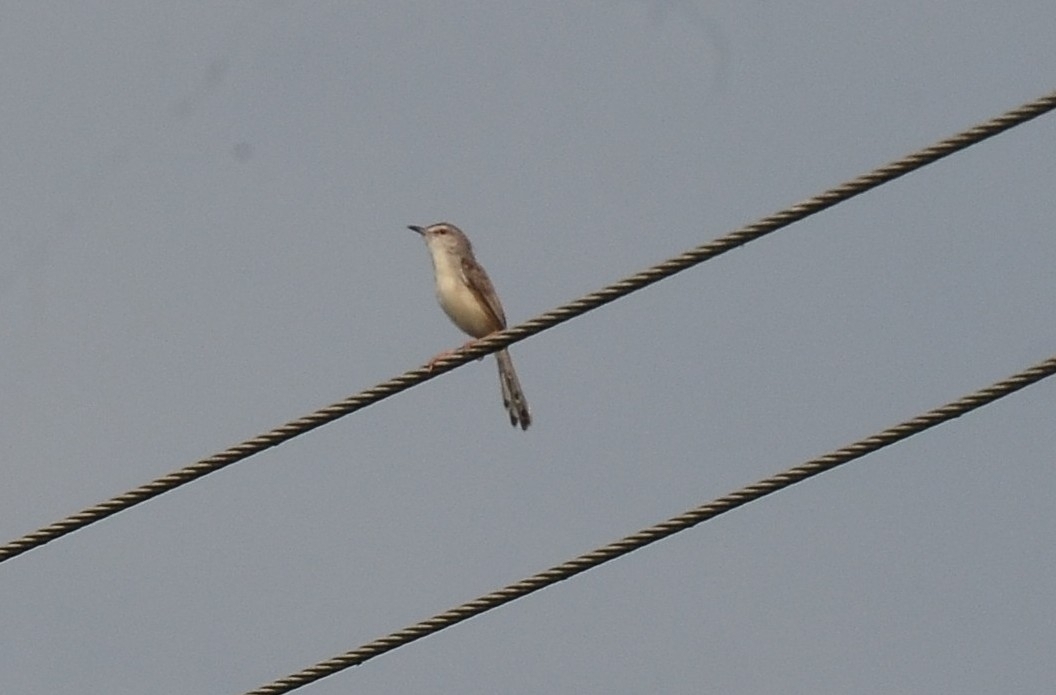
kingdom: Animalia
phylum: Chordata
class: Aves
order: Passeriformes
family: Cisticolidae
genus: Prinia
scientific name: Prinia inornata
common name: Plain prinia
